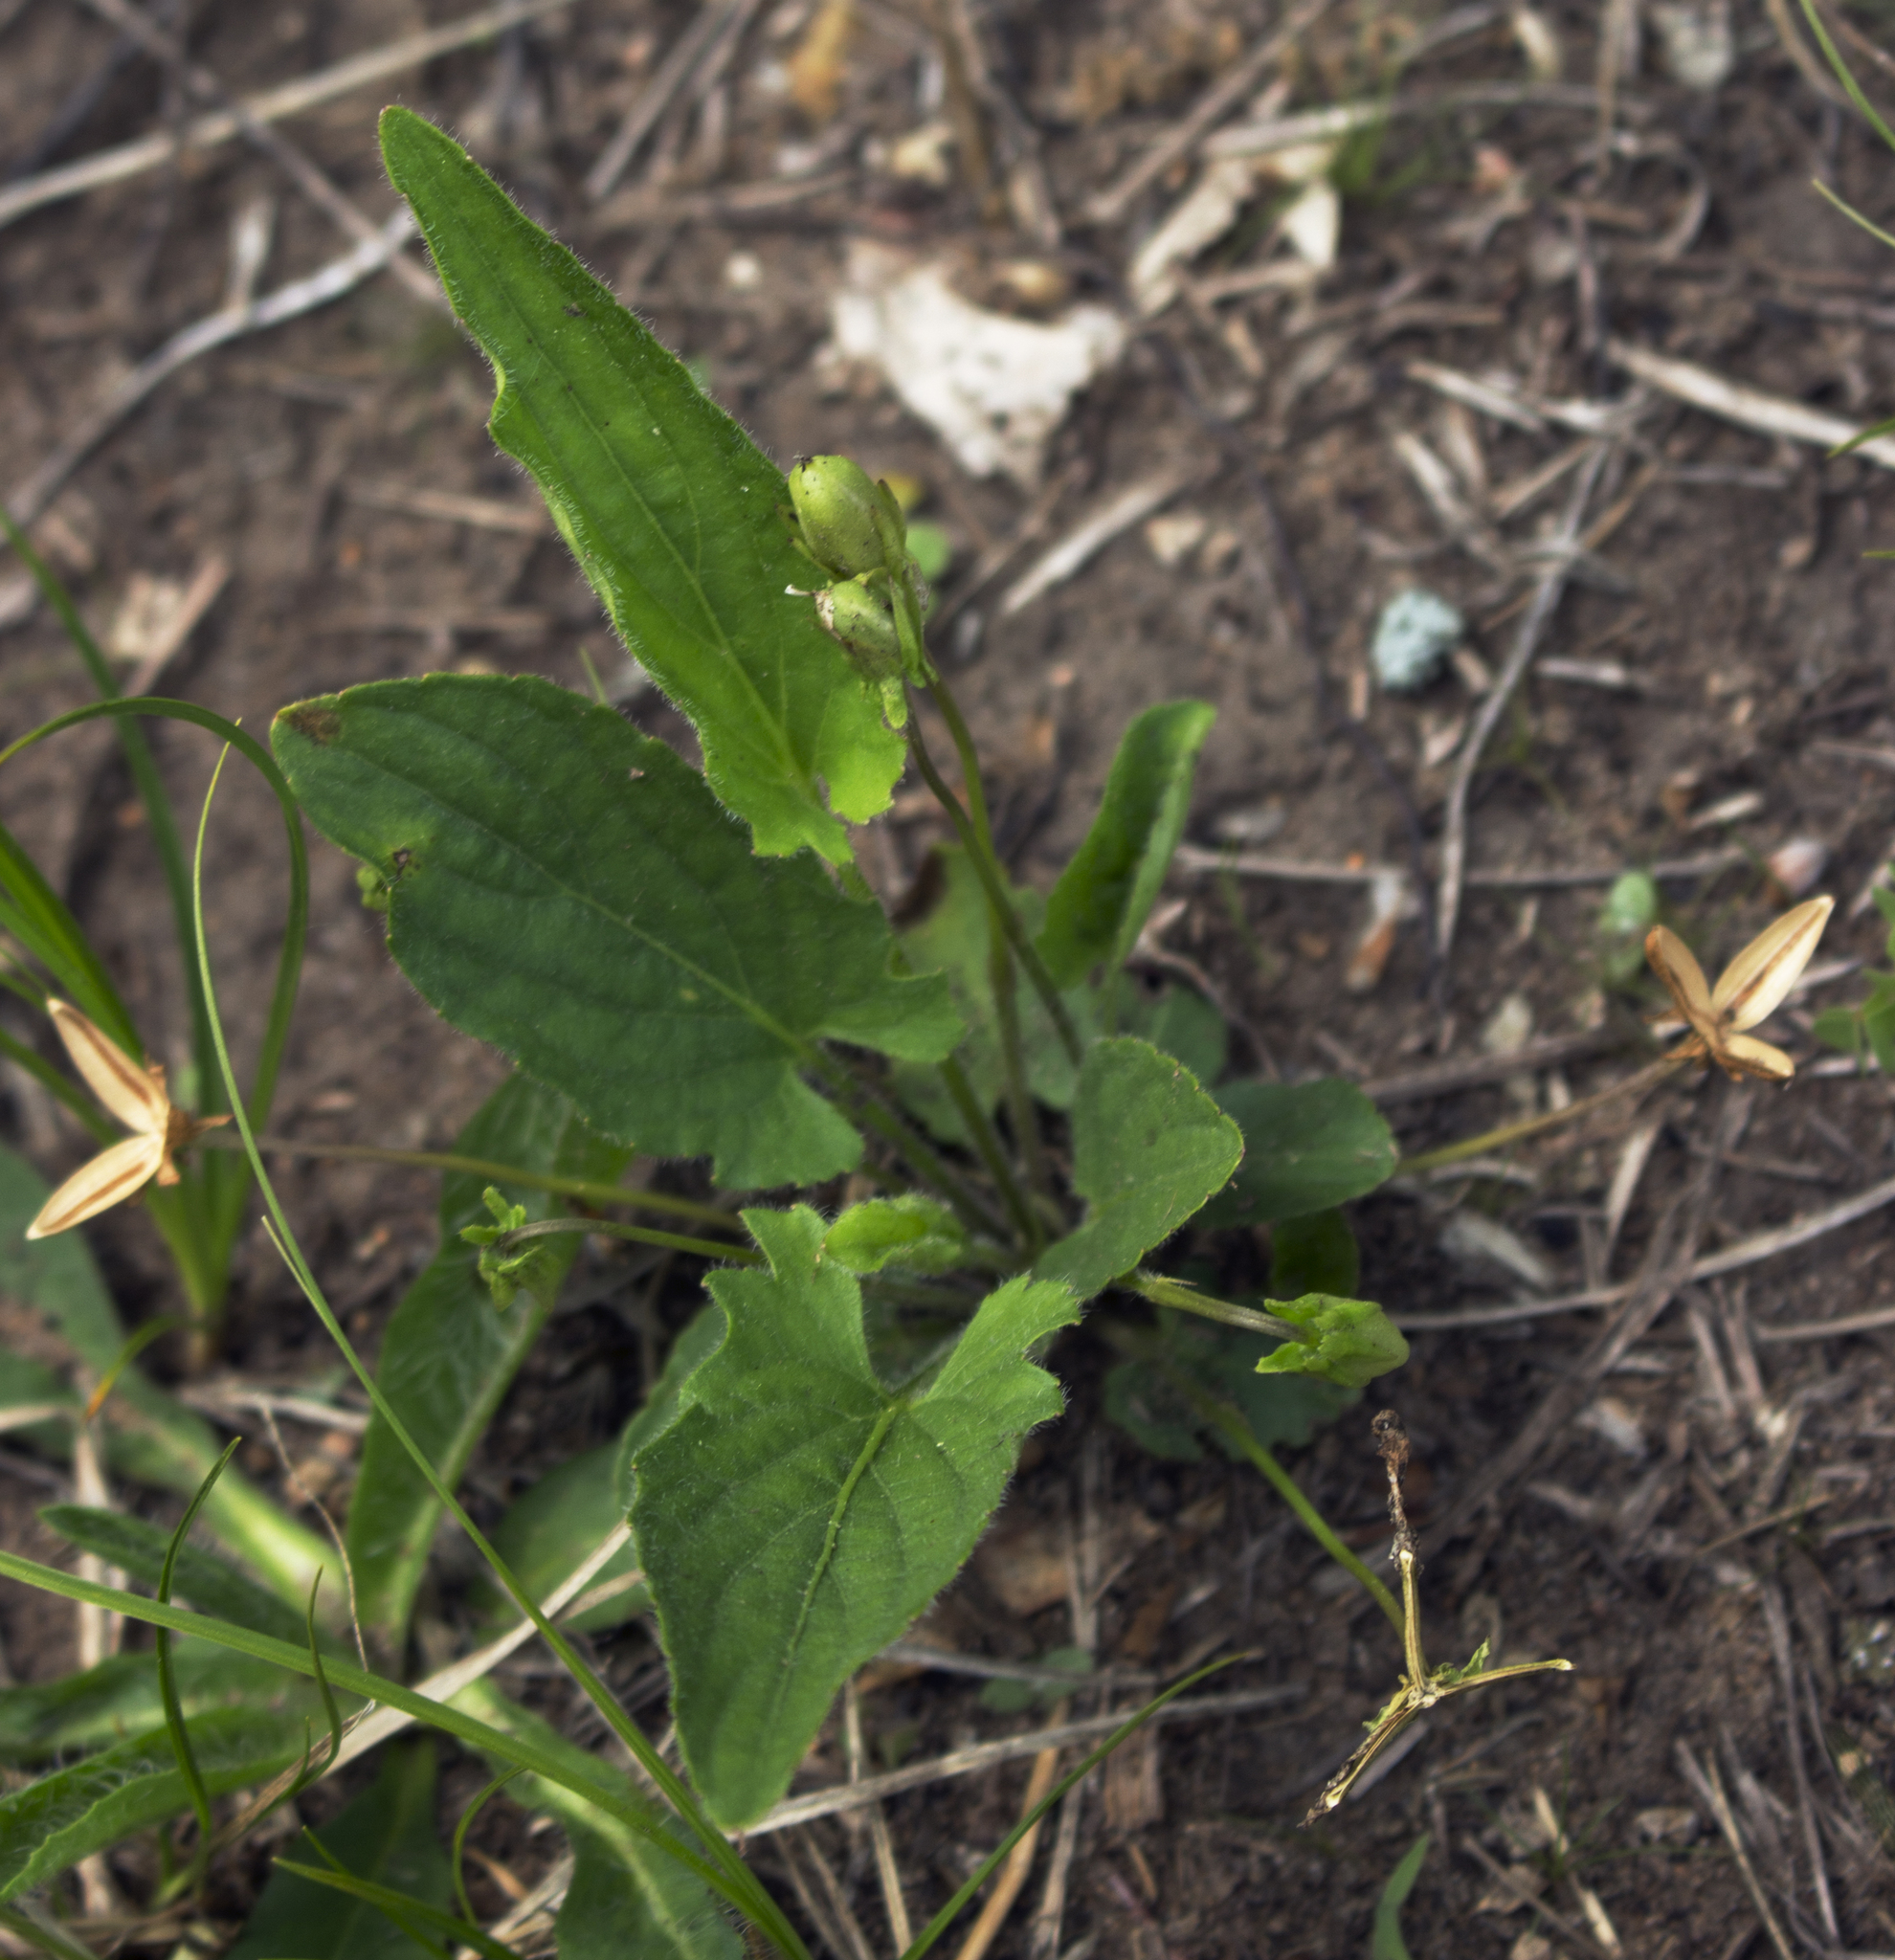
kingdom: Plantae
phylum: Tracheophyta
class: Magnoliopsida
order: Malpighiales
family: Violaceae
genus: Viola
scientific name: Viola sagittata
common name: Arrowhead violet
